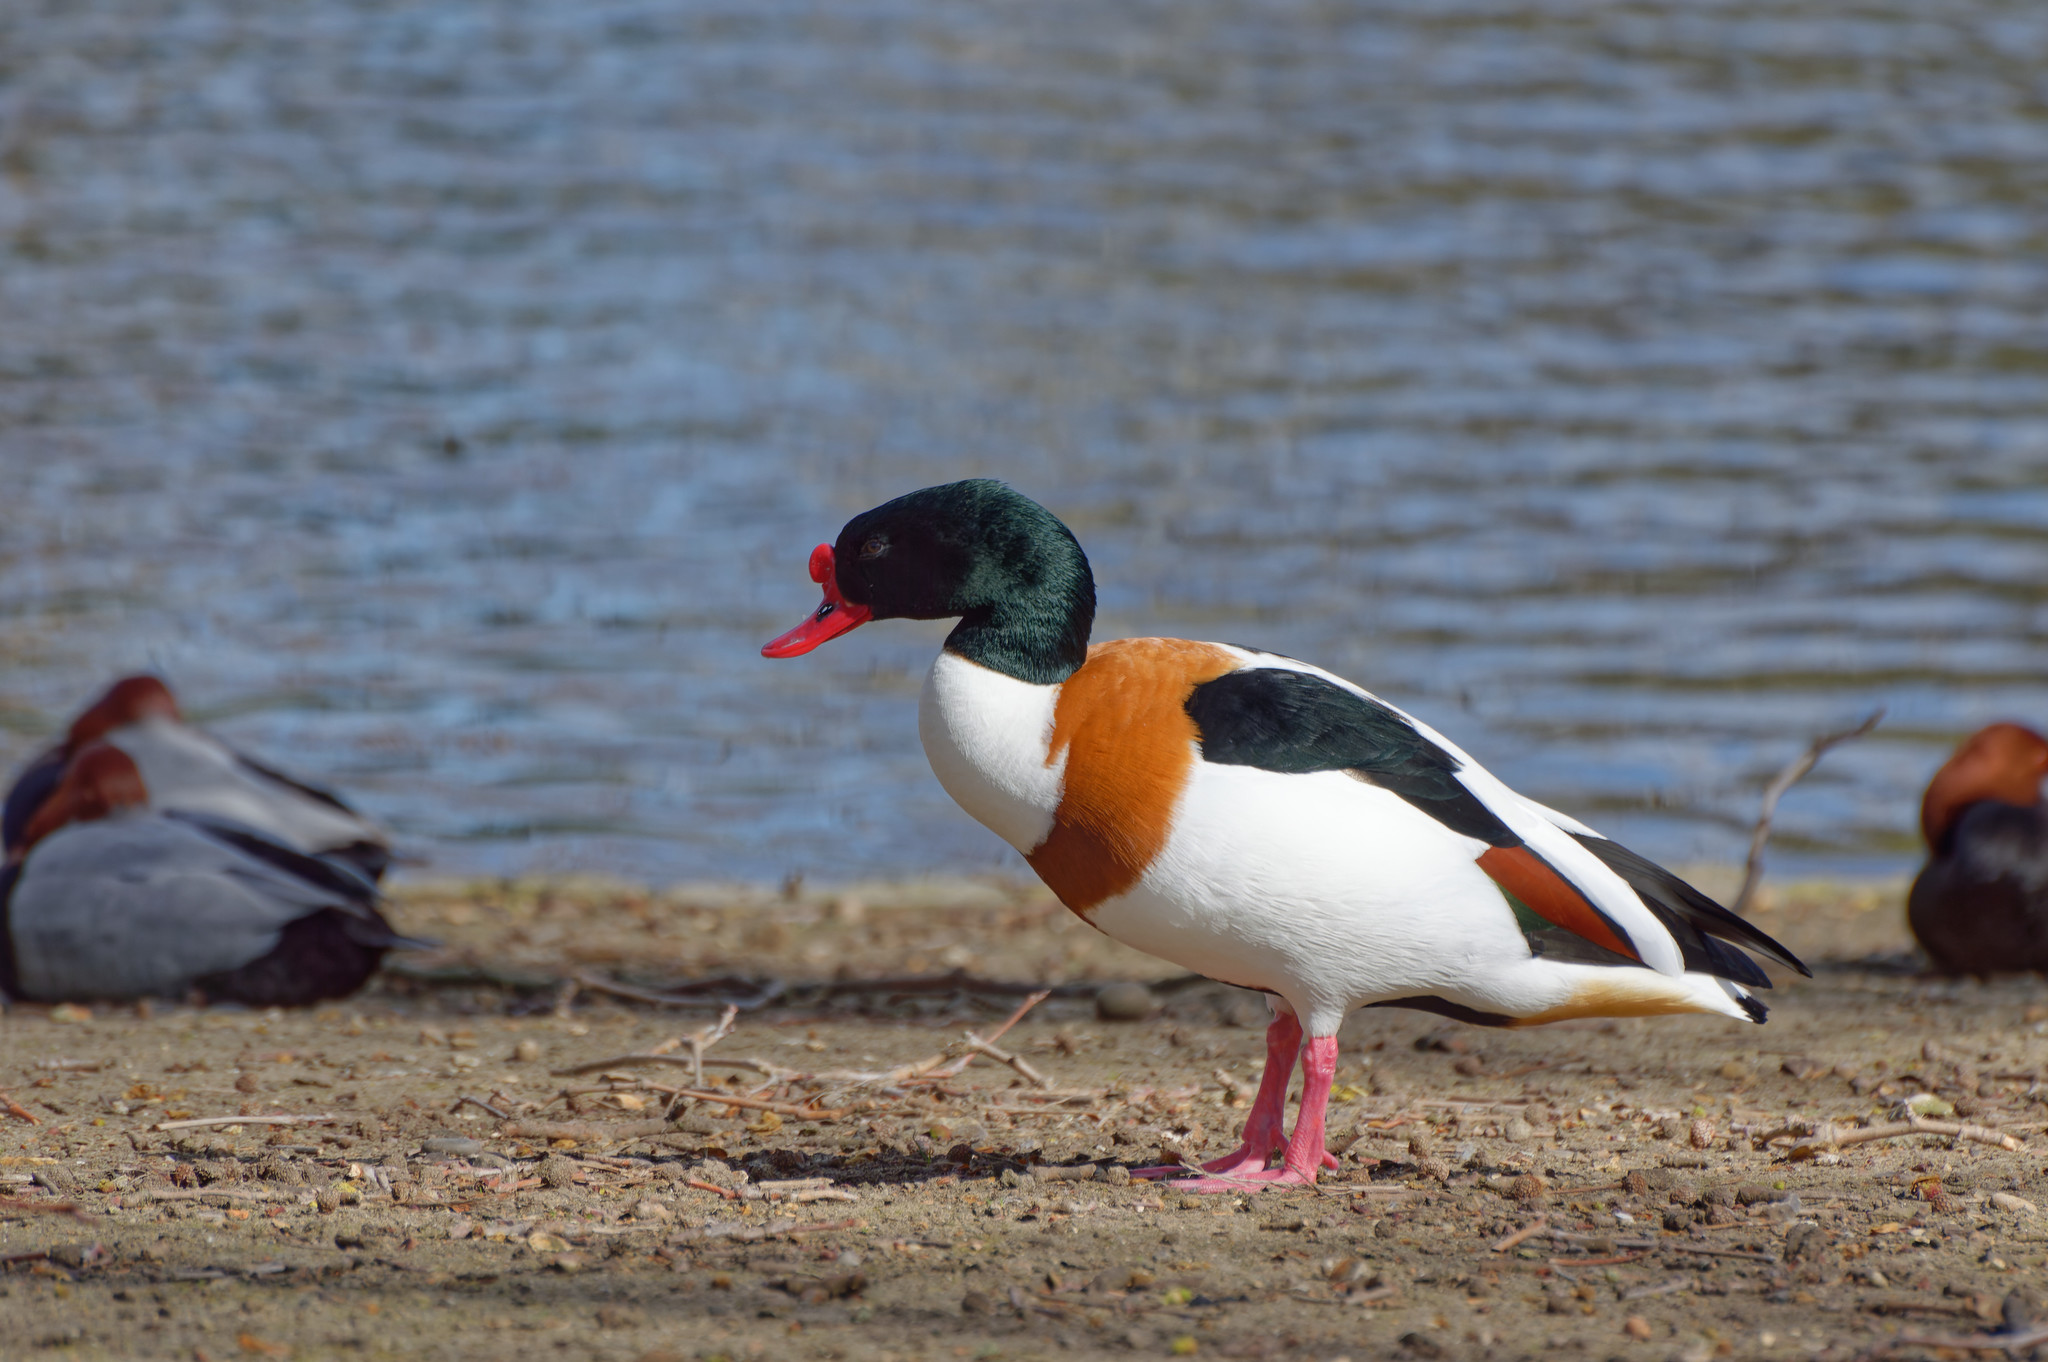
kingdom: Animalia
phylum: Chordata
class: Aves
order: Anseriformes
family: Anatidae
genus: Tadorna
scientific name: Tadorna tadorna
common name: Common shelduck
